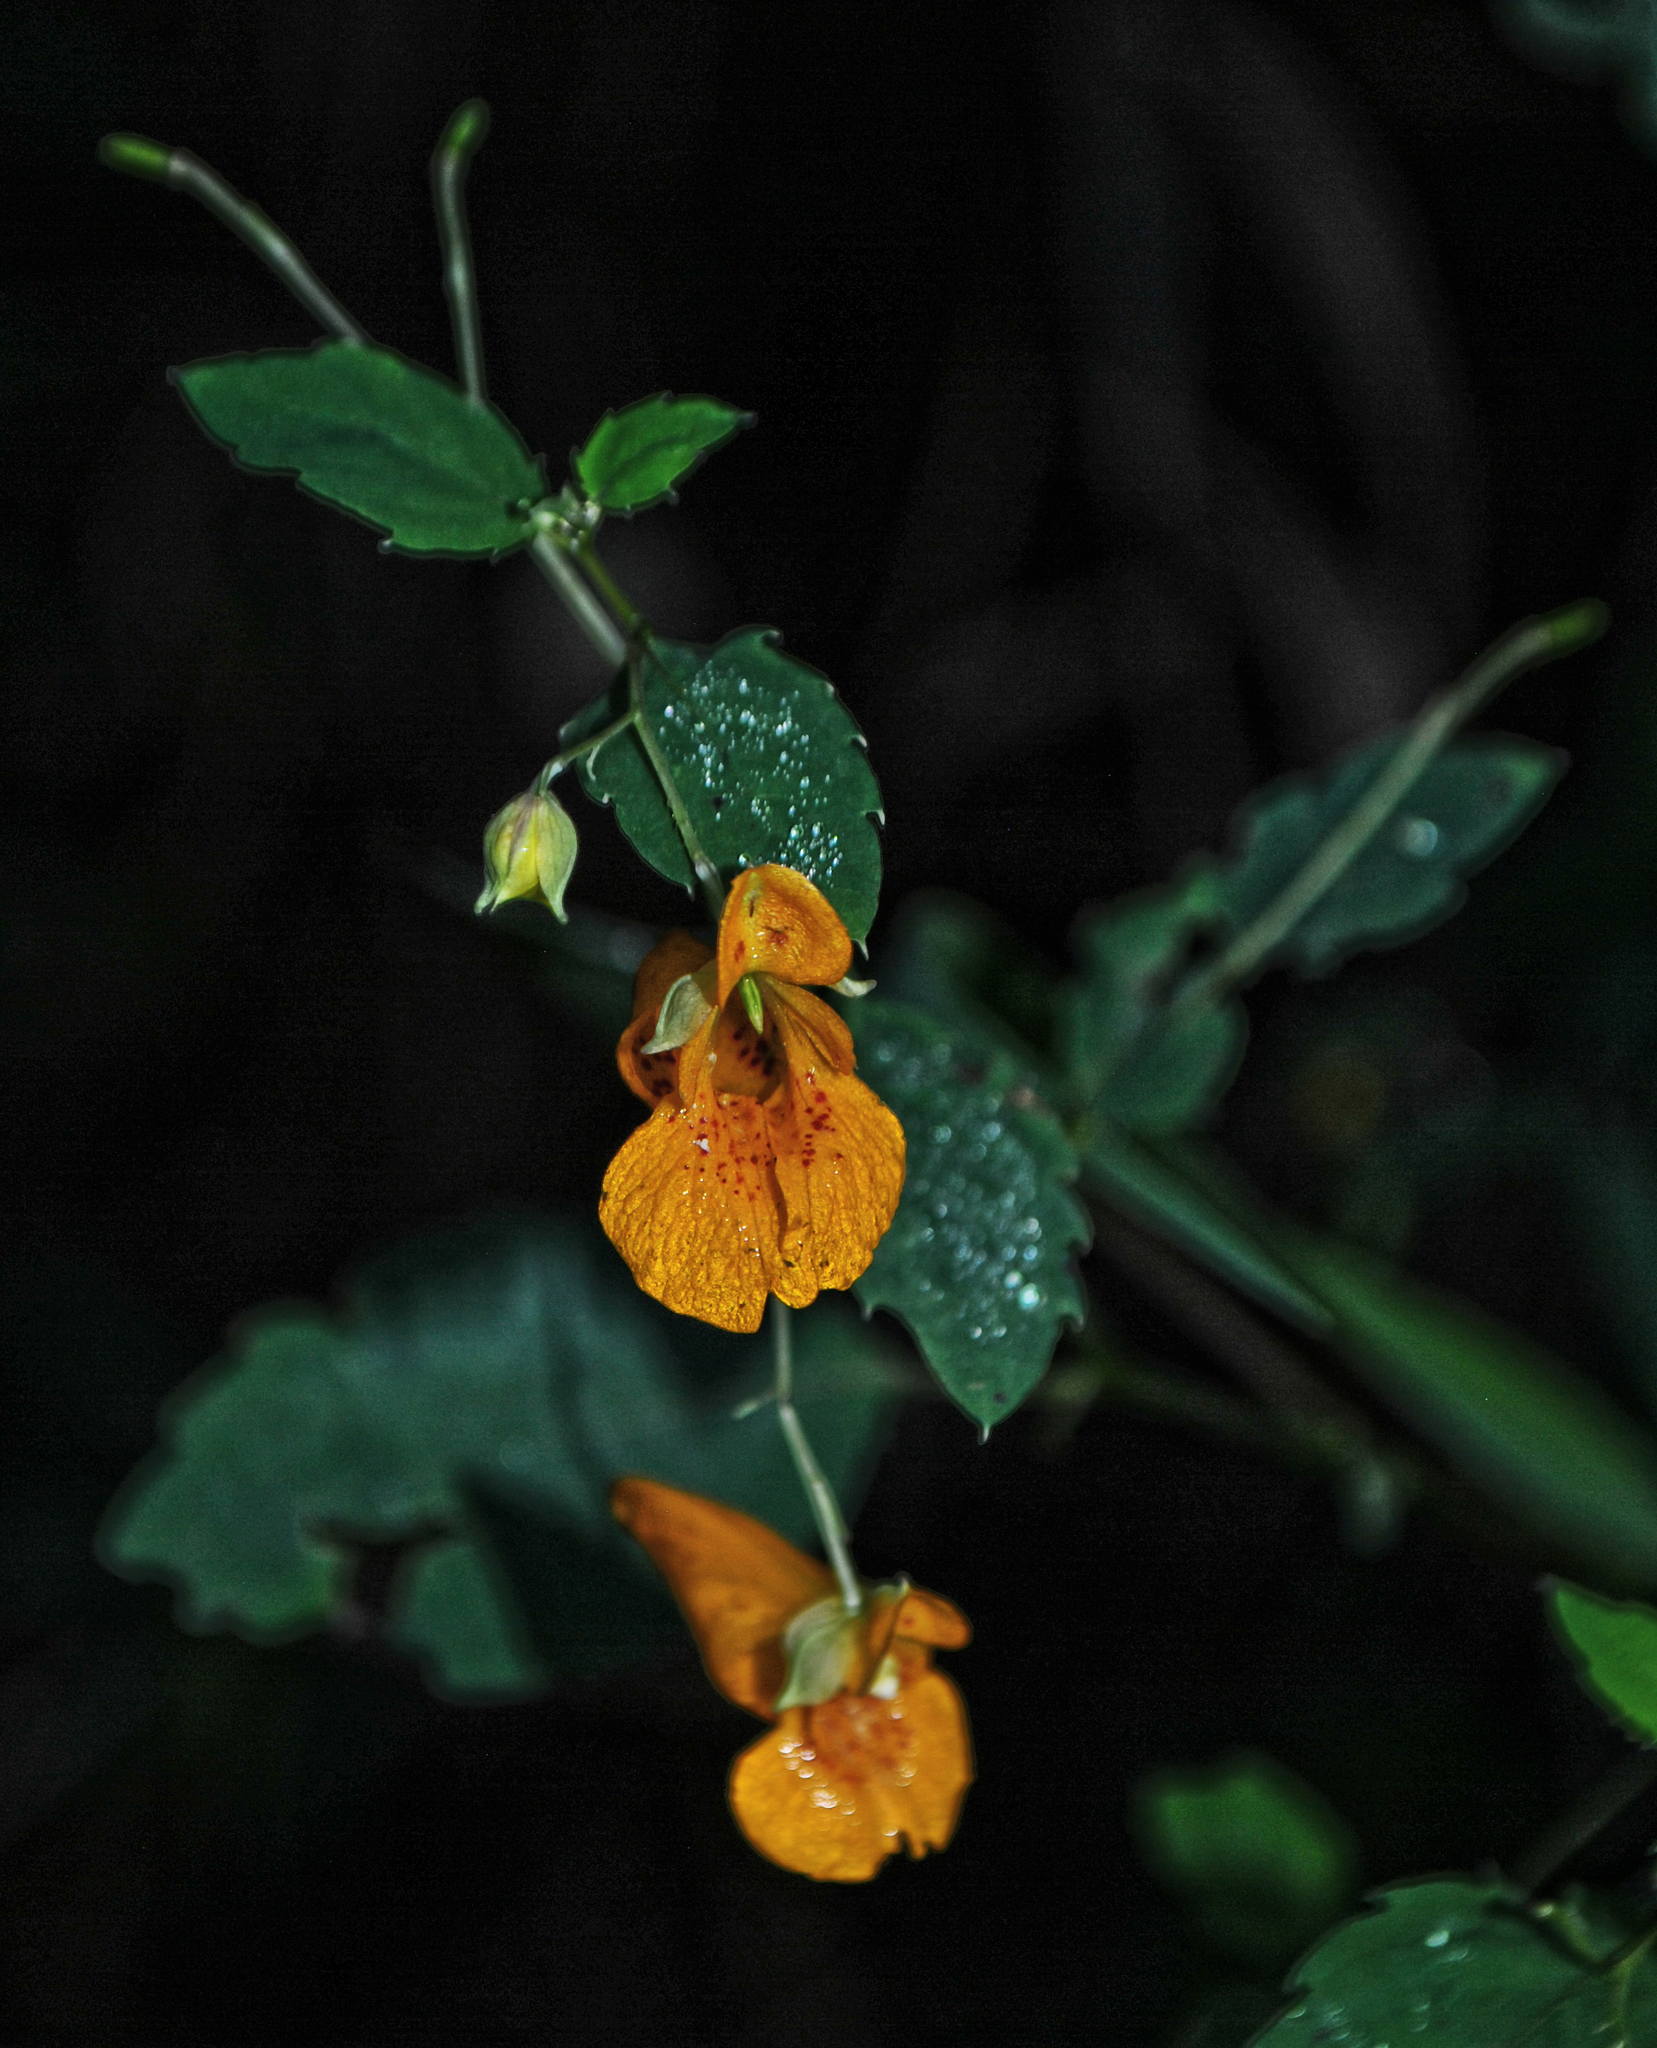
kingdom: Plantae
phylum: Tracheophyta
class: Magnoliopsida
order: Ericales
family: Balsaminaceae
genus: Impatiens
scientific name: Impatiens capensis
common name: Orange balsam
